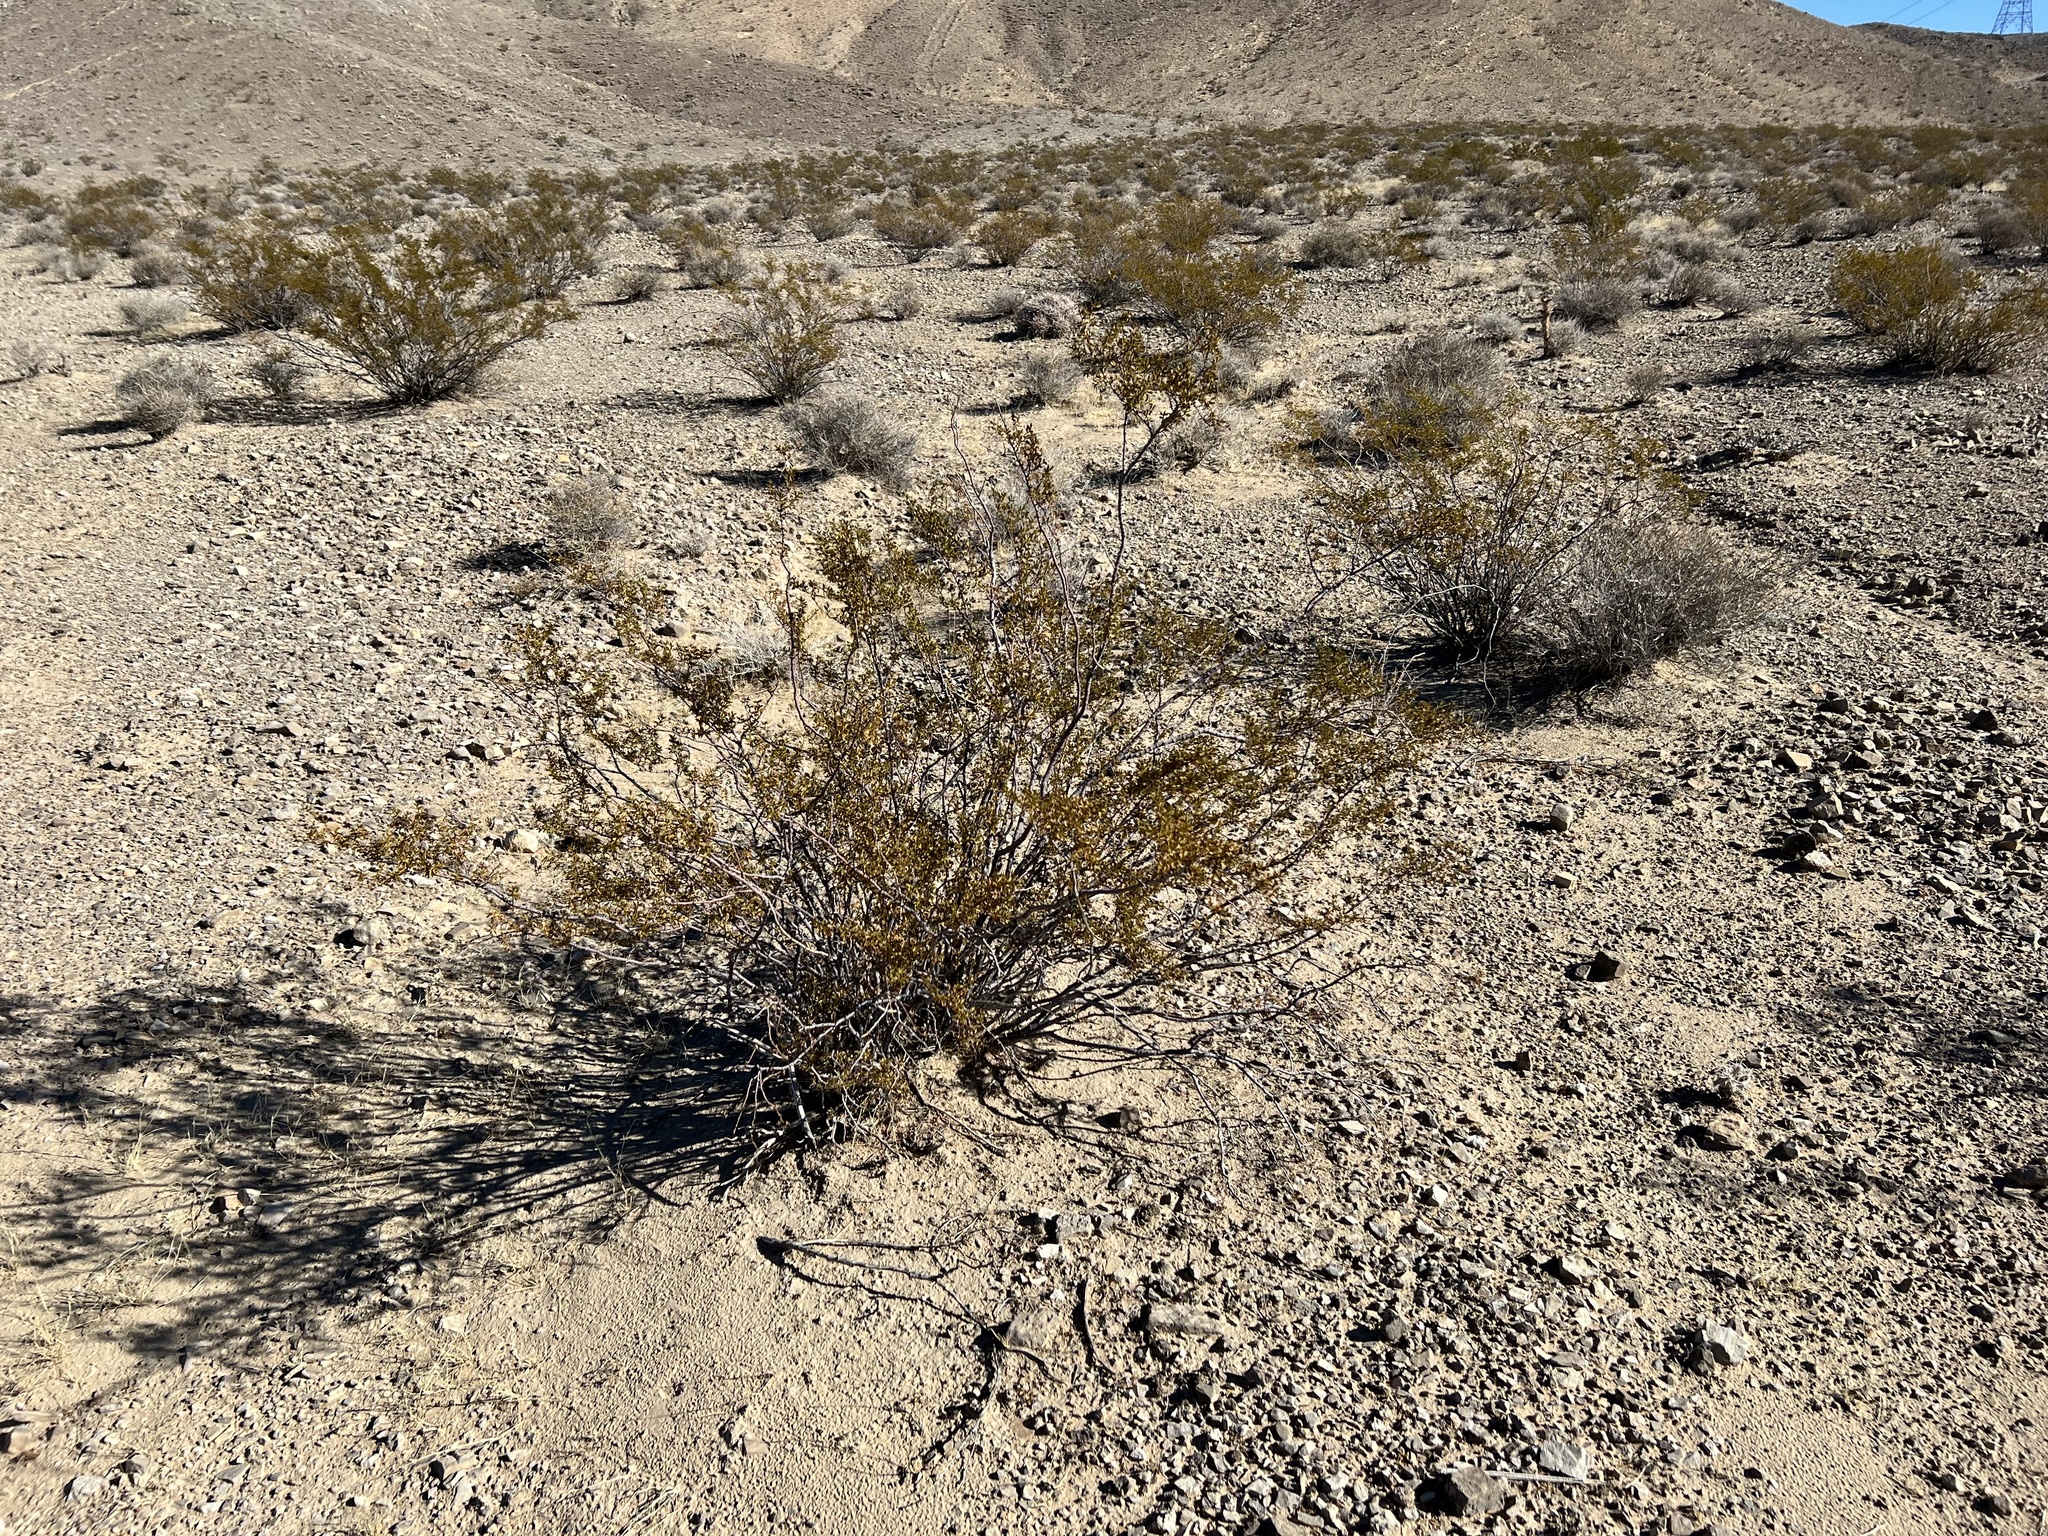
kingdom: Plantae
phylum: Tracheophyta
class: Magnoliopsida
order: Zygophyllales
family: Zygophyllaceae
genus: Larrea
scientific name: Larrea tridentata
